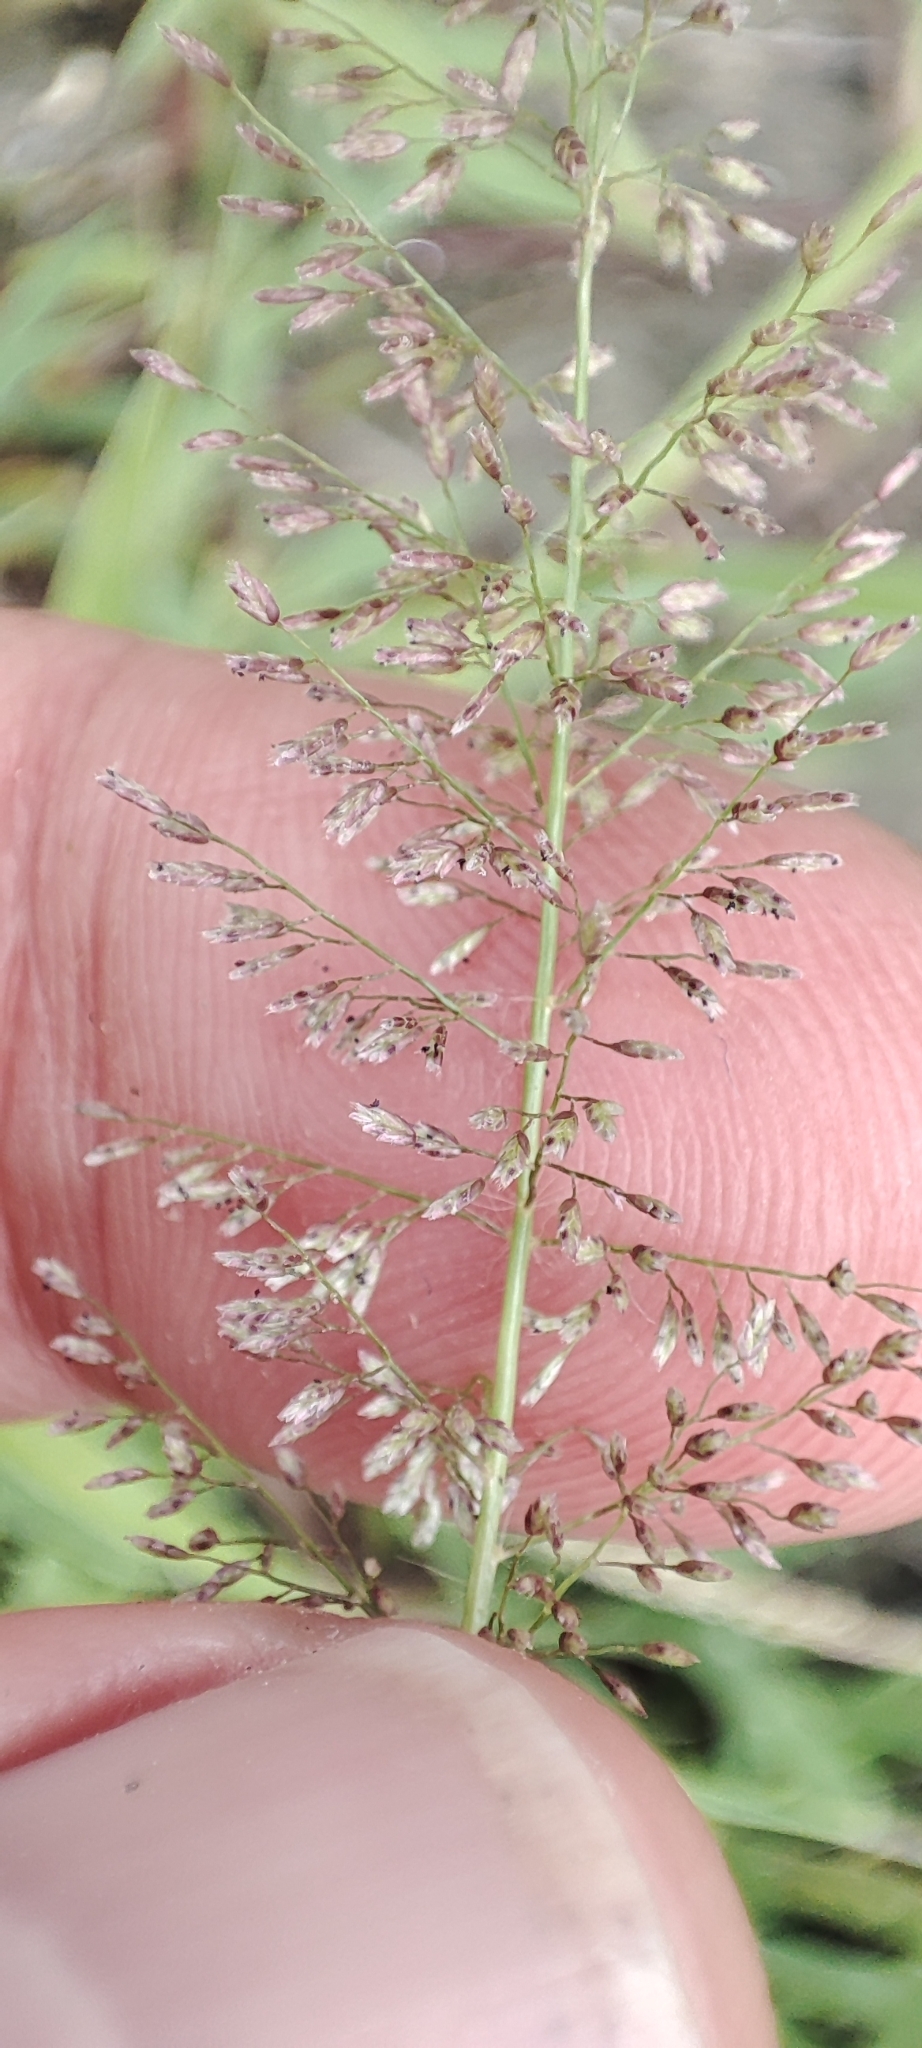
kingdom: Plantae
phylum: Tracheophyta
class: Liliopsida
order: Poales
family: Poaceae
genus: Eragrostis
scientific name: Eragrostis tenella
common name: Japanese lovegrass
